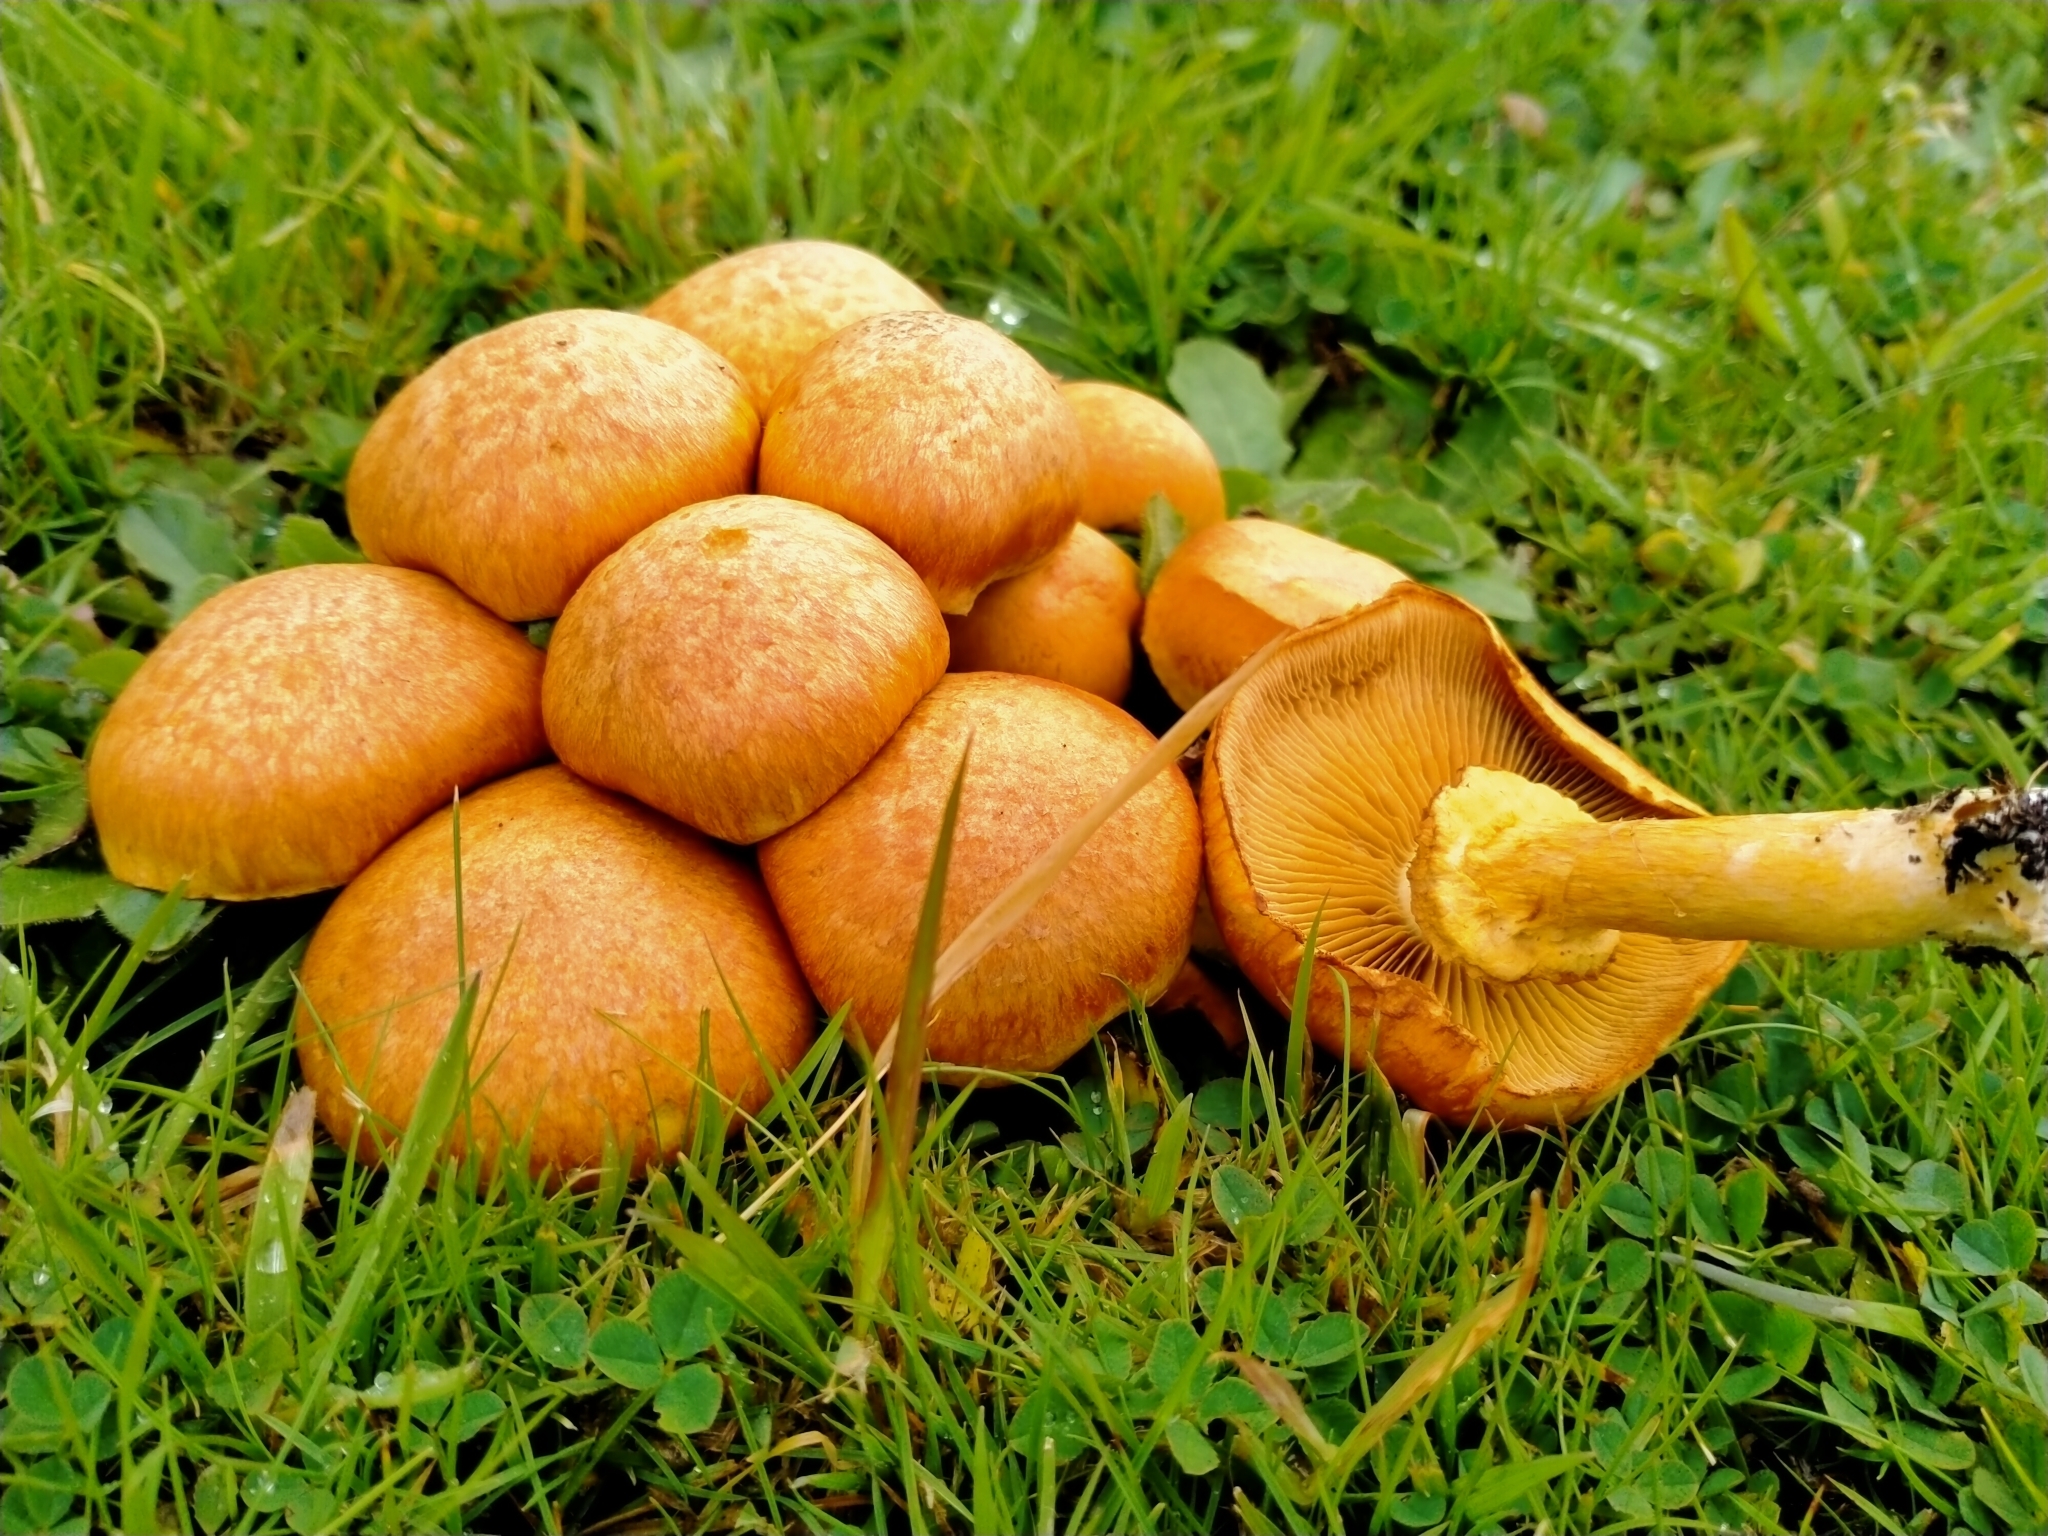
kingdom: Fungi
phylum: Basidiomycota
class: Agaricomycetes
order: Agaricales
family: Hymenogastraceae
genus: Gymnopilus
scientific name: Gymnopilus junonius
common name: Spectacular rustgill
